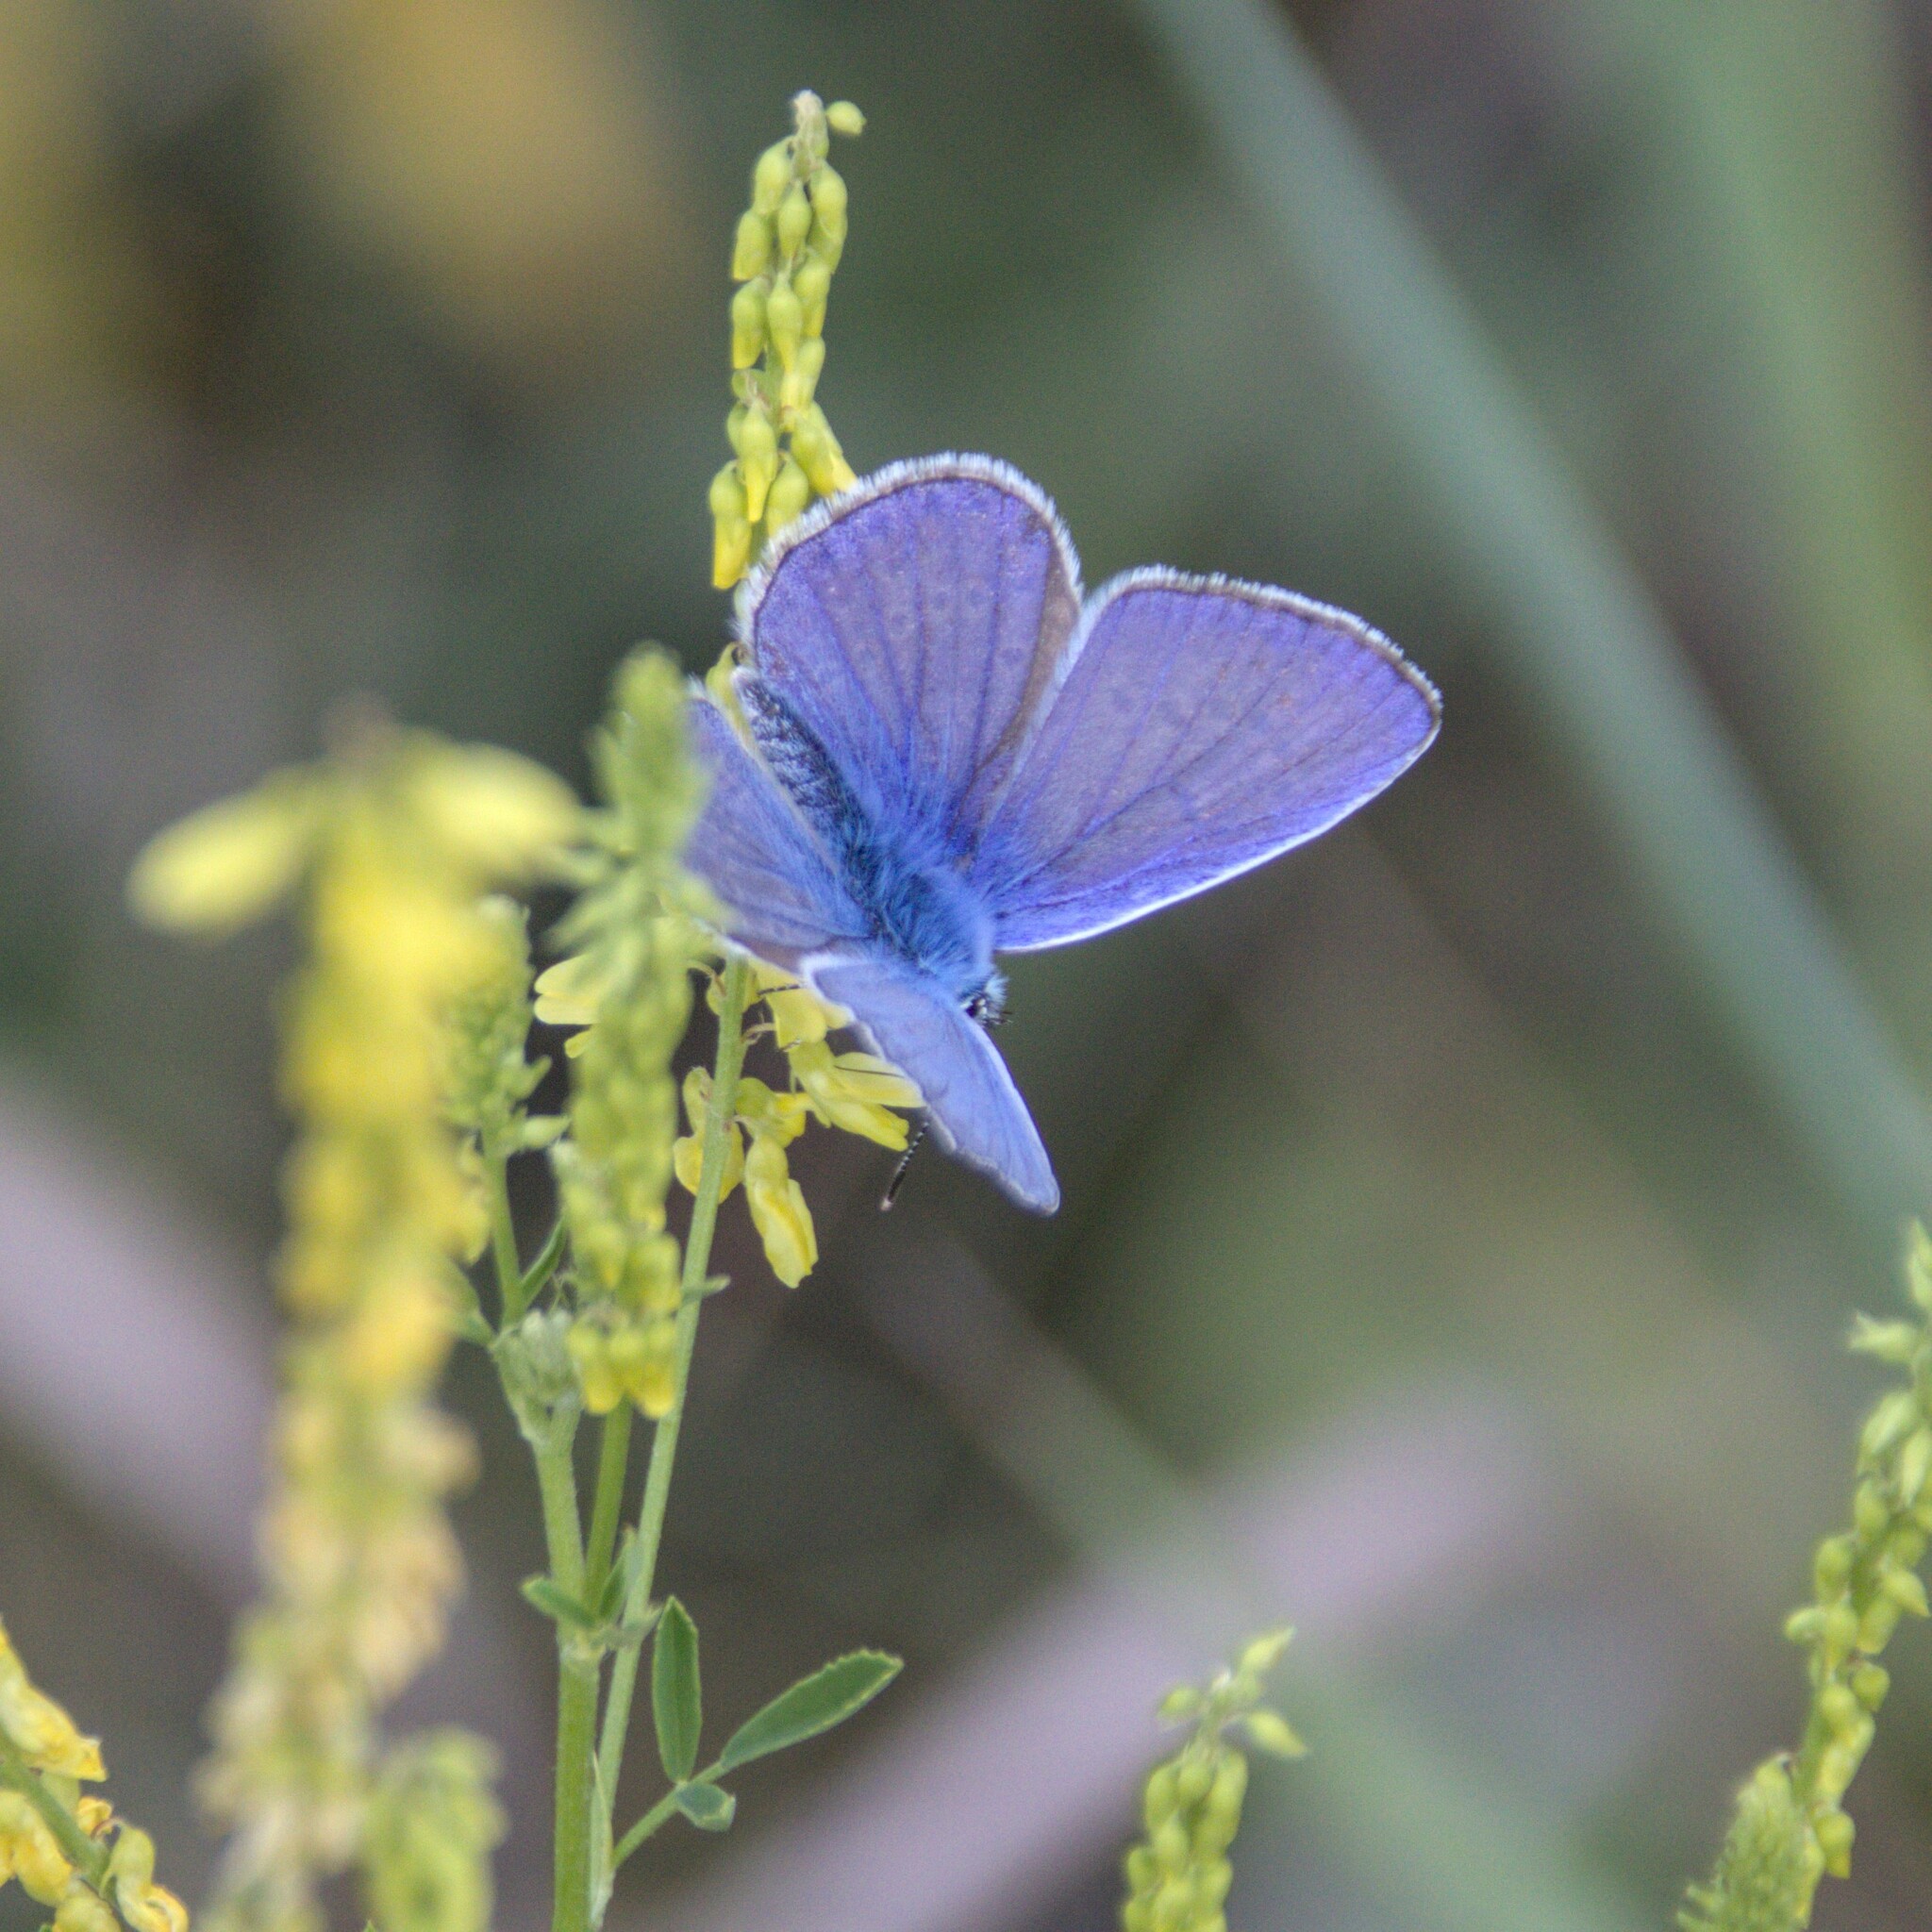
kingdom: Animalia
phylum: Arthropoda
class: Insecta
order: Lepidoptera
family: Lycaenidae
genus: Polyommatus
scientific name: Polyommatus icarus
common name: Common blue
